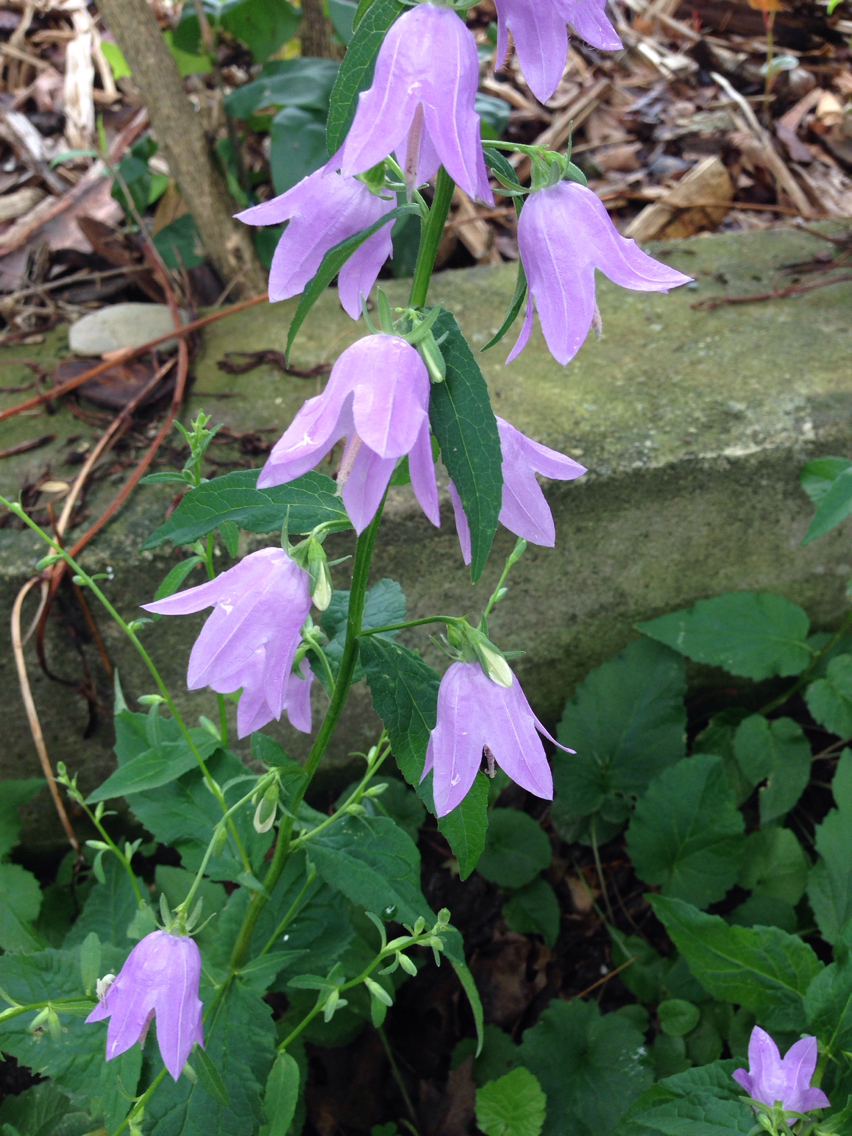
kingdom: Plantae
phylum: Tracheophyta
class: Magnoliopsida
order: Asterales
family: Campanulaceae
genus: Campanula
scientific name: Campanula rapunculoides
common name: Creeping bellflower
